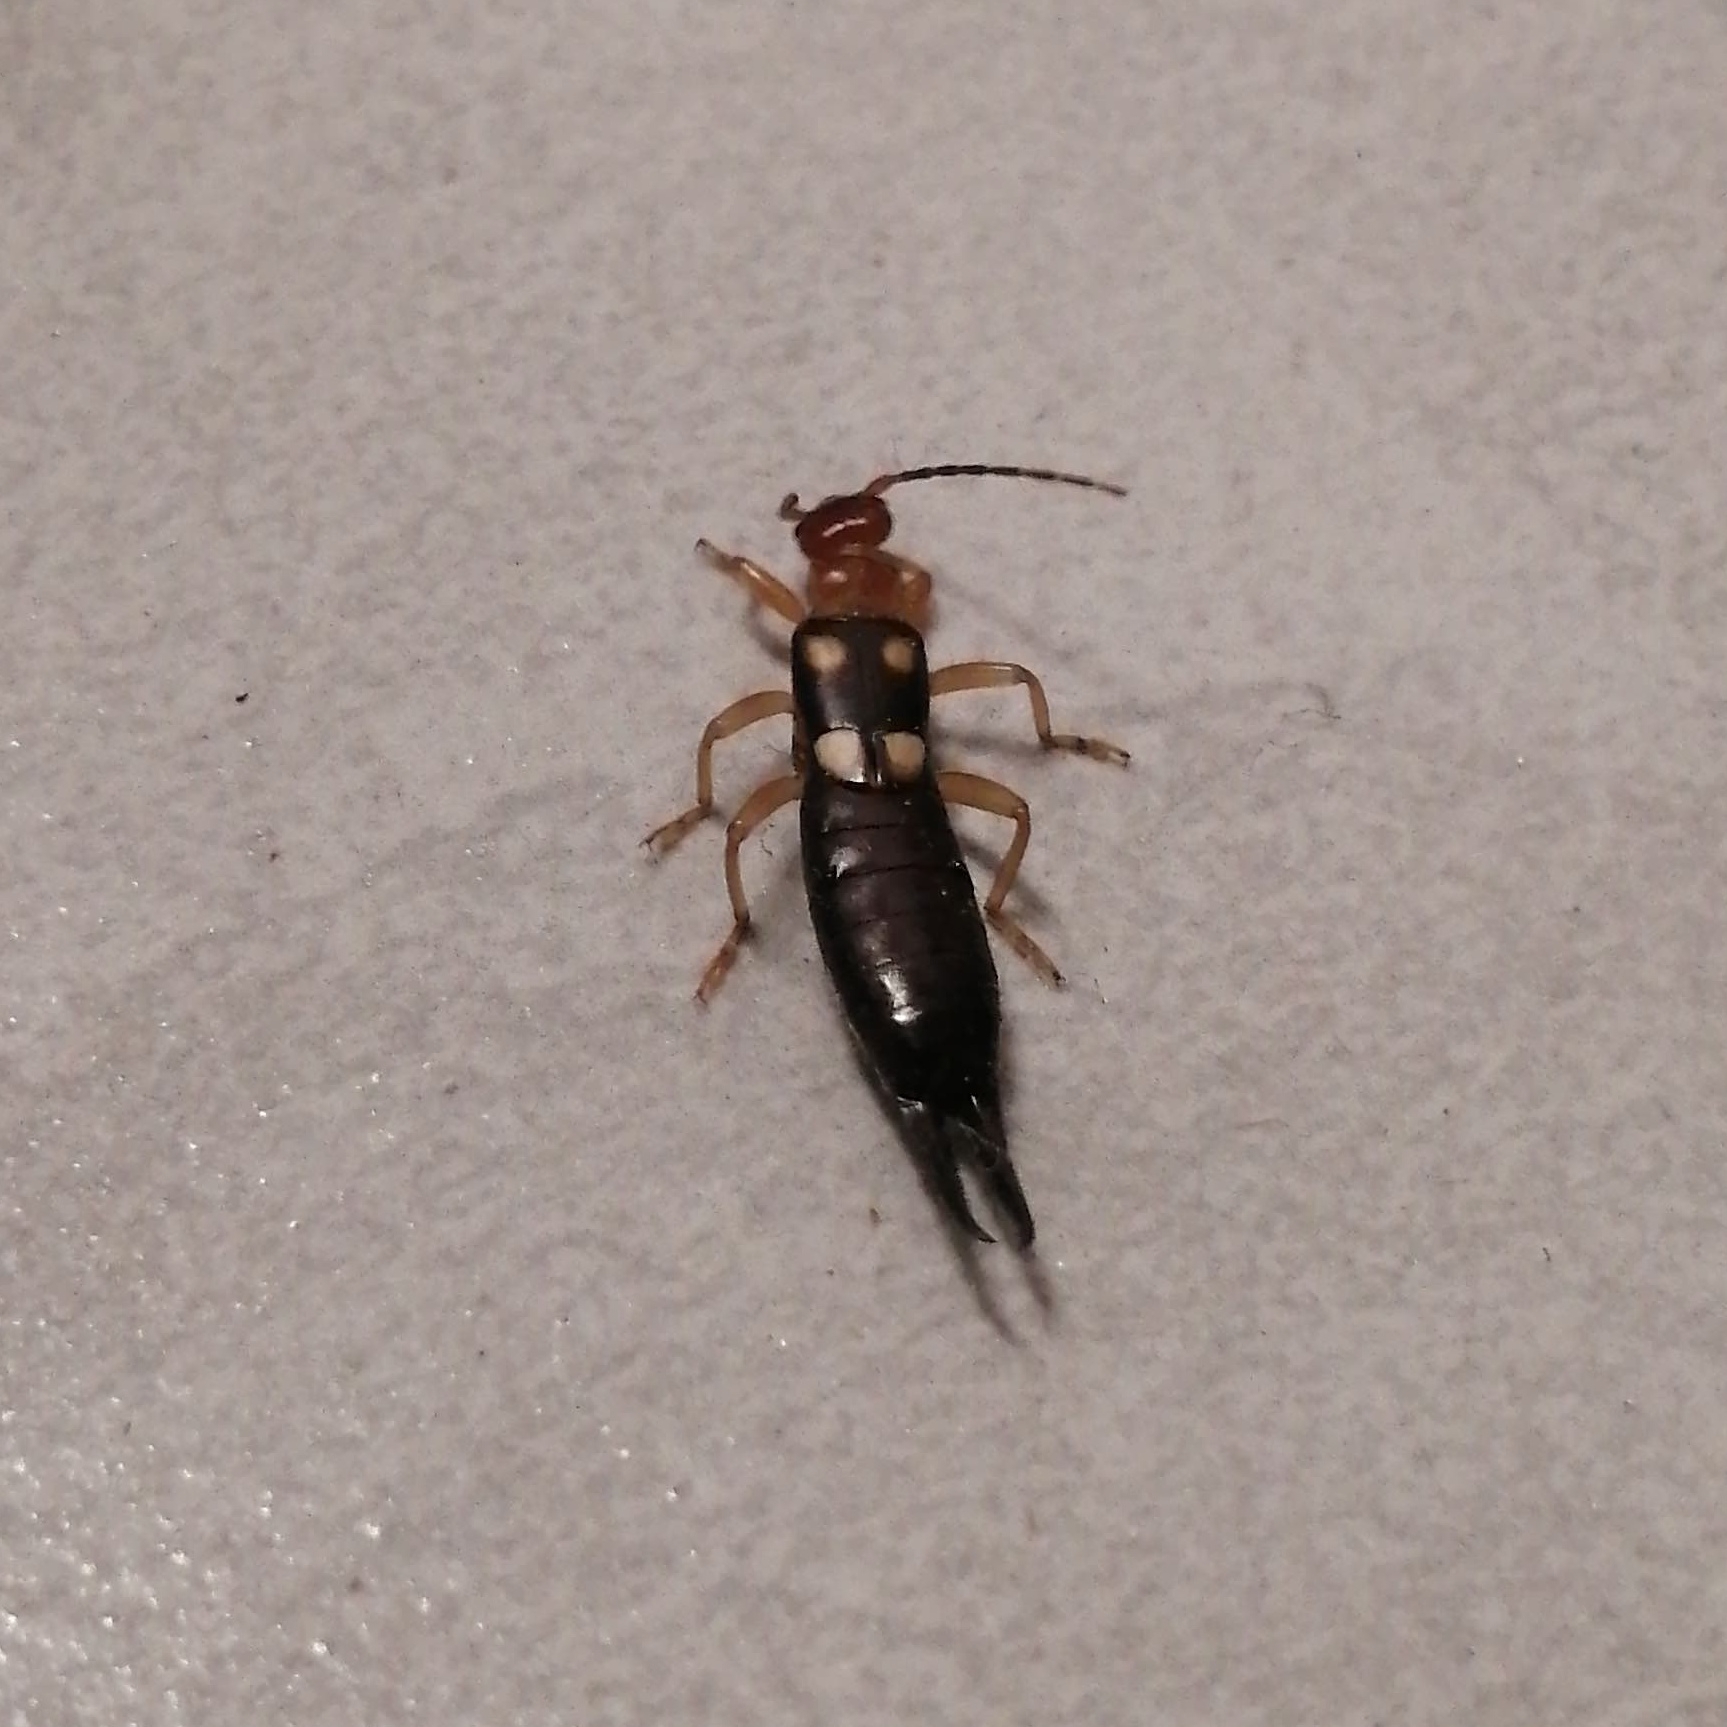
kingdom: Animalia
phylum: Arthropoda
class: Insecta
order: Dermaptera
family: Forficulidae
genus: Forficula
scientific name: Forficula smyrnensis
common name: Smyrna earwig
